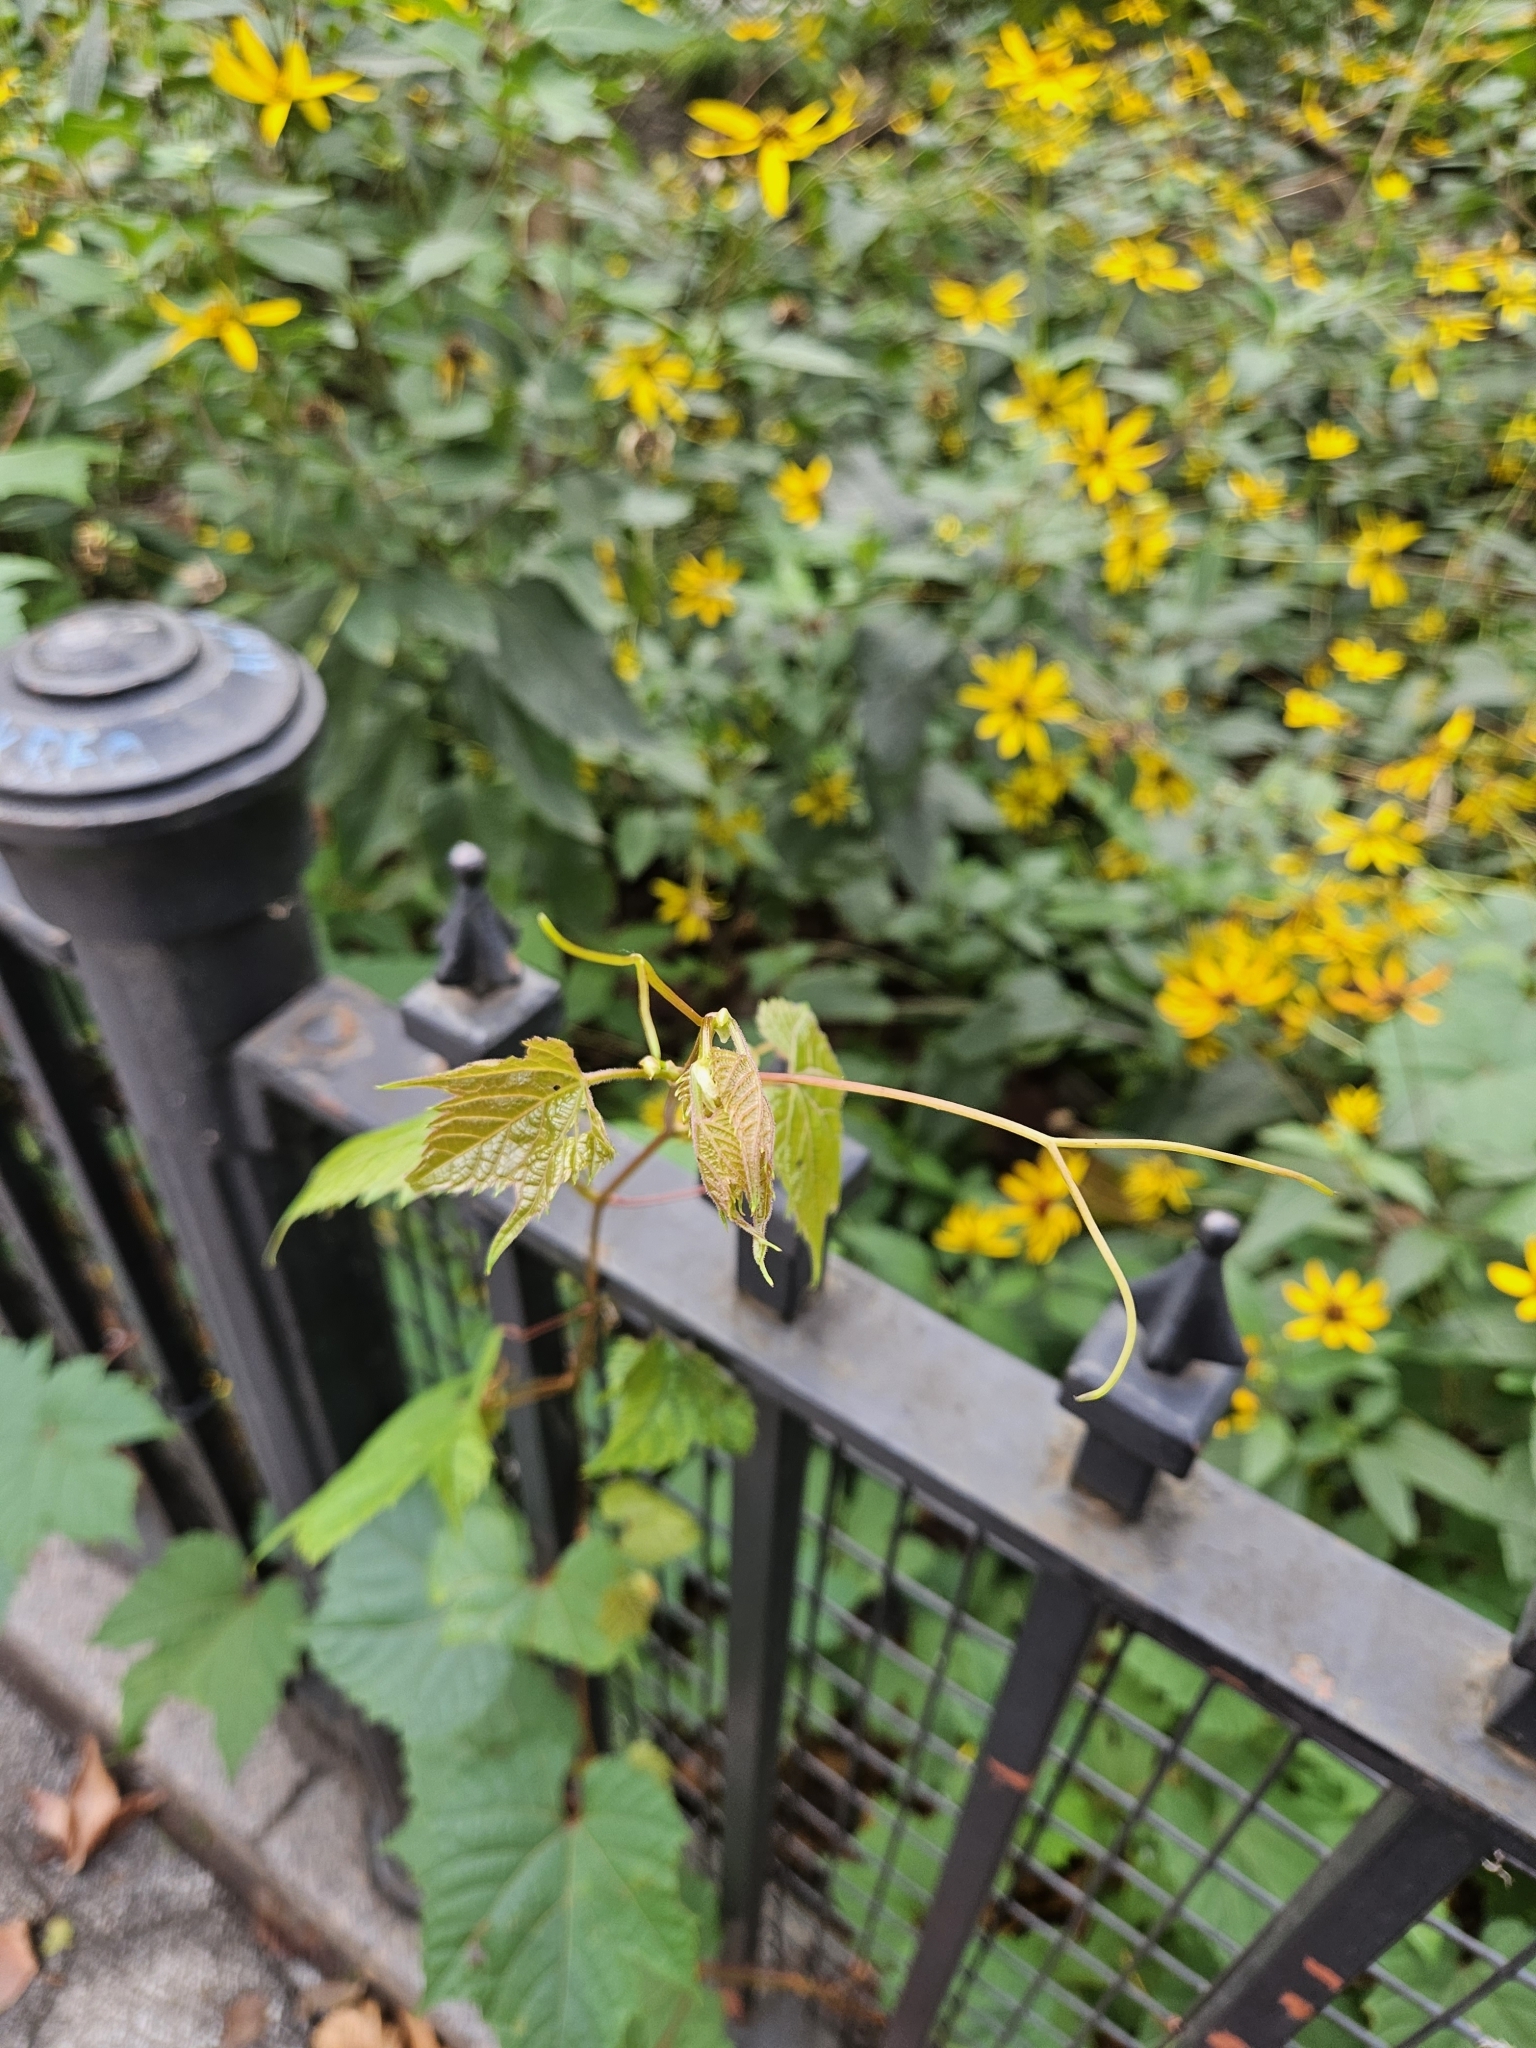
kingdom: Plantae
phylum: Tracheophyta
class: Magnoliopsida
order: Vitales
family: Vitaceae
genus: Ampelopsis
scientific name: Ampelopsis glandulosa
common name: Amur peppervine
